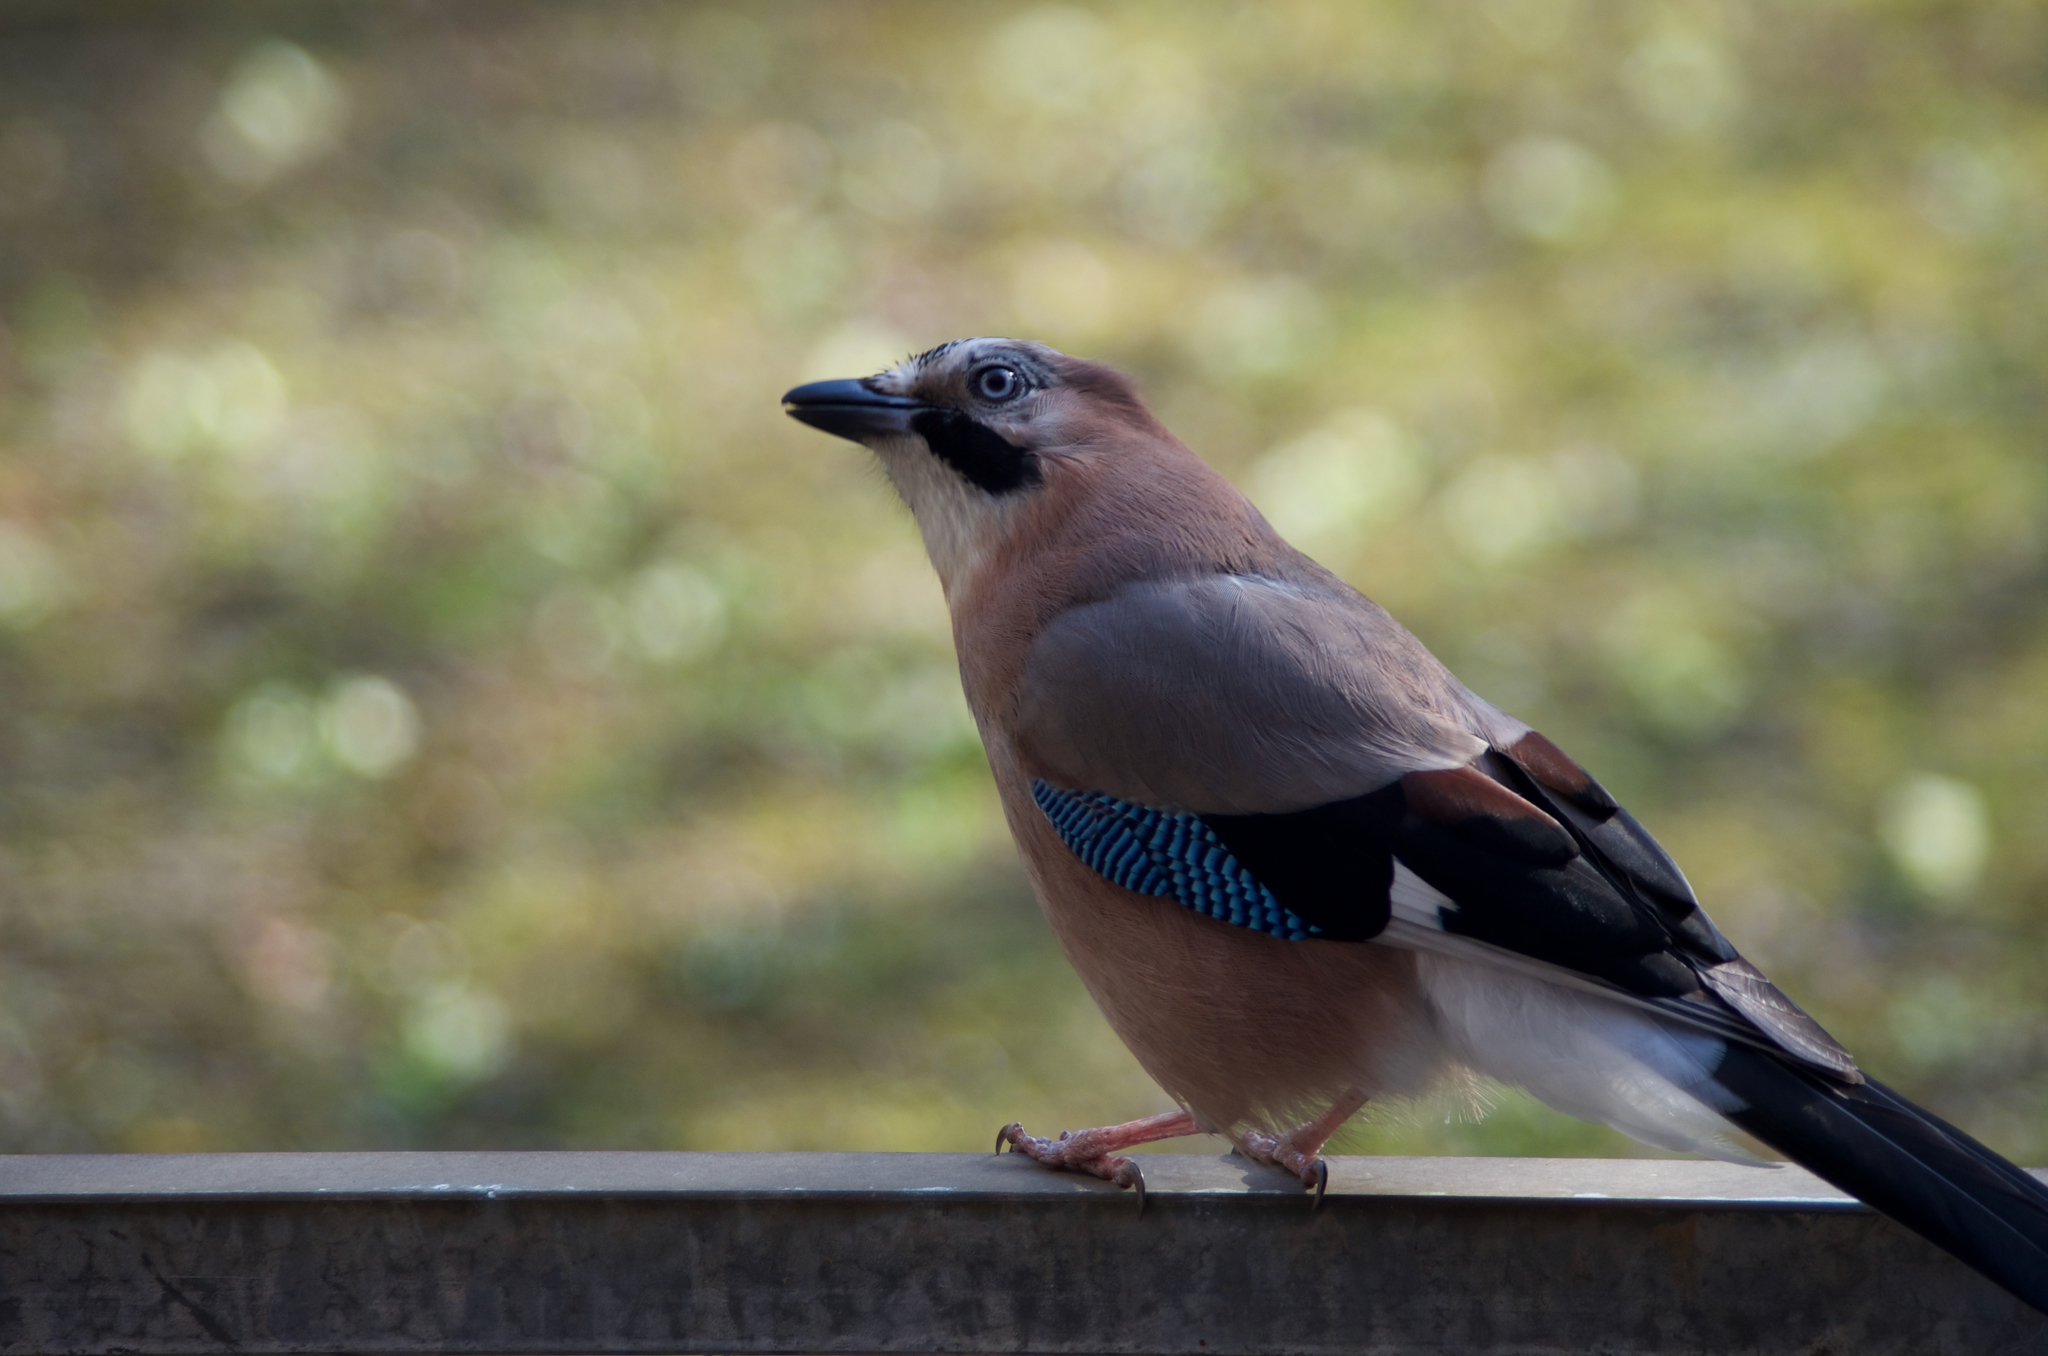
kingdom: Animalia
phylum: Chordata
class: Aves
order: Passeriformes
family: Corvidae
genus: Garrulus
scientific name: Garrulus glandarius
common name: Eurasian jay
